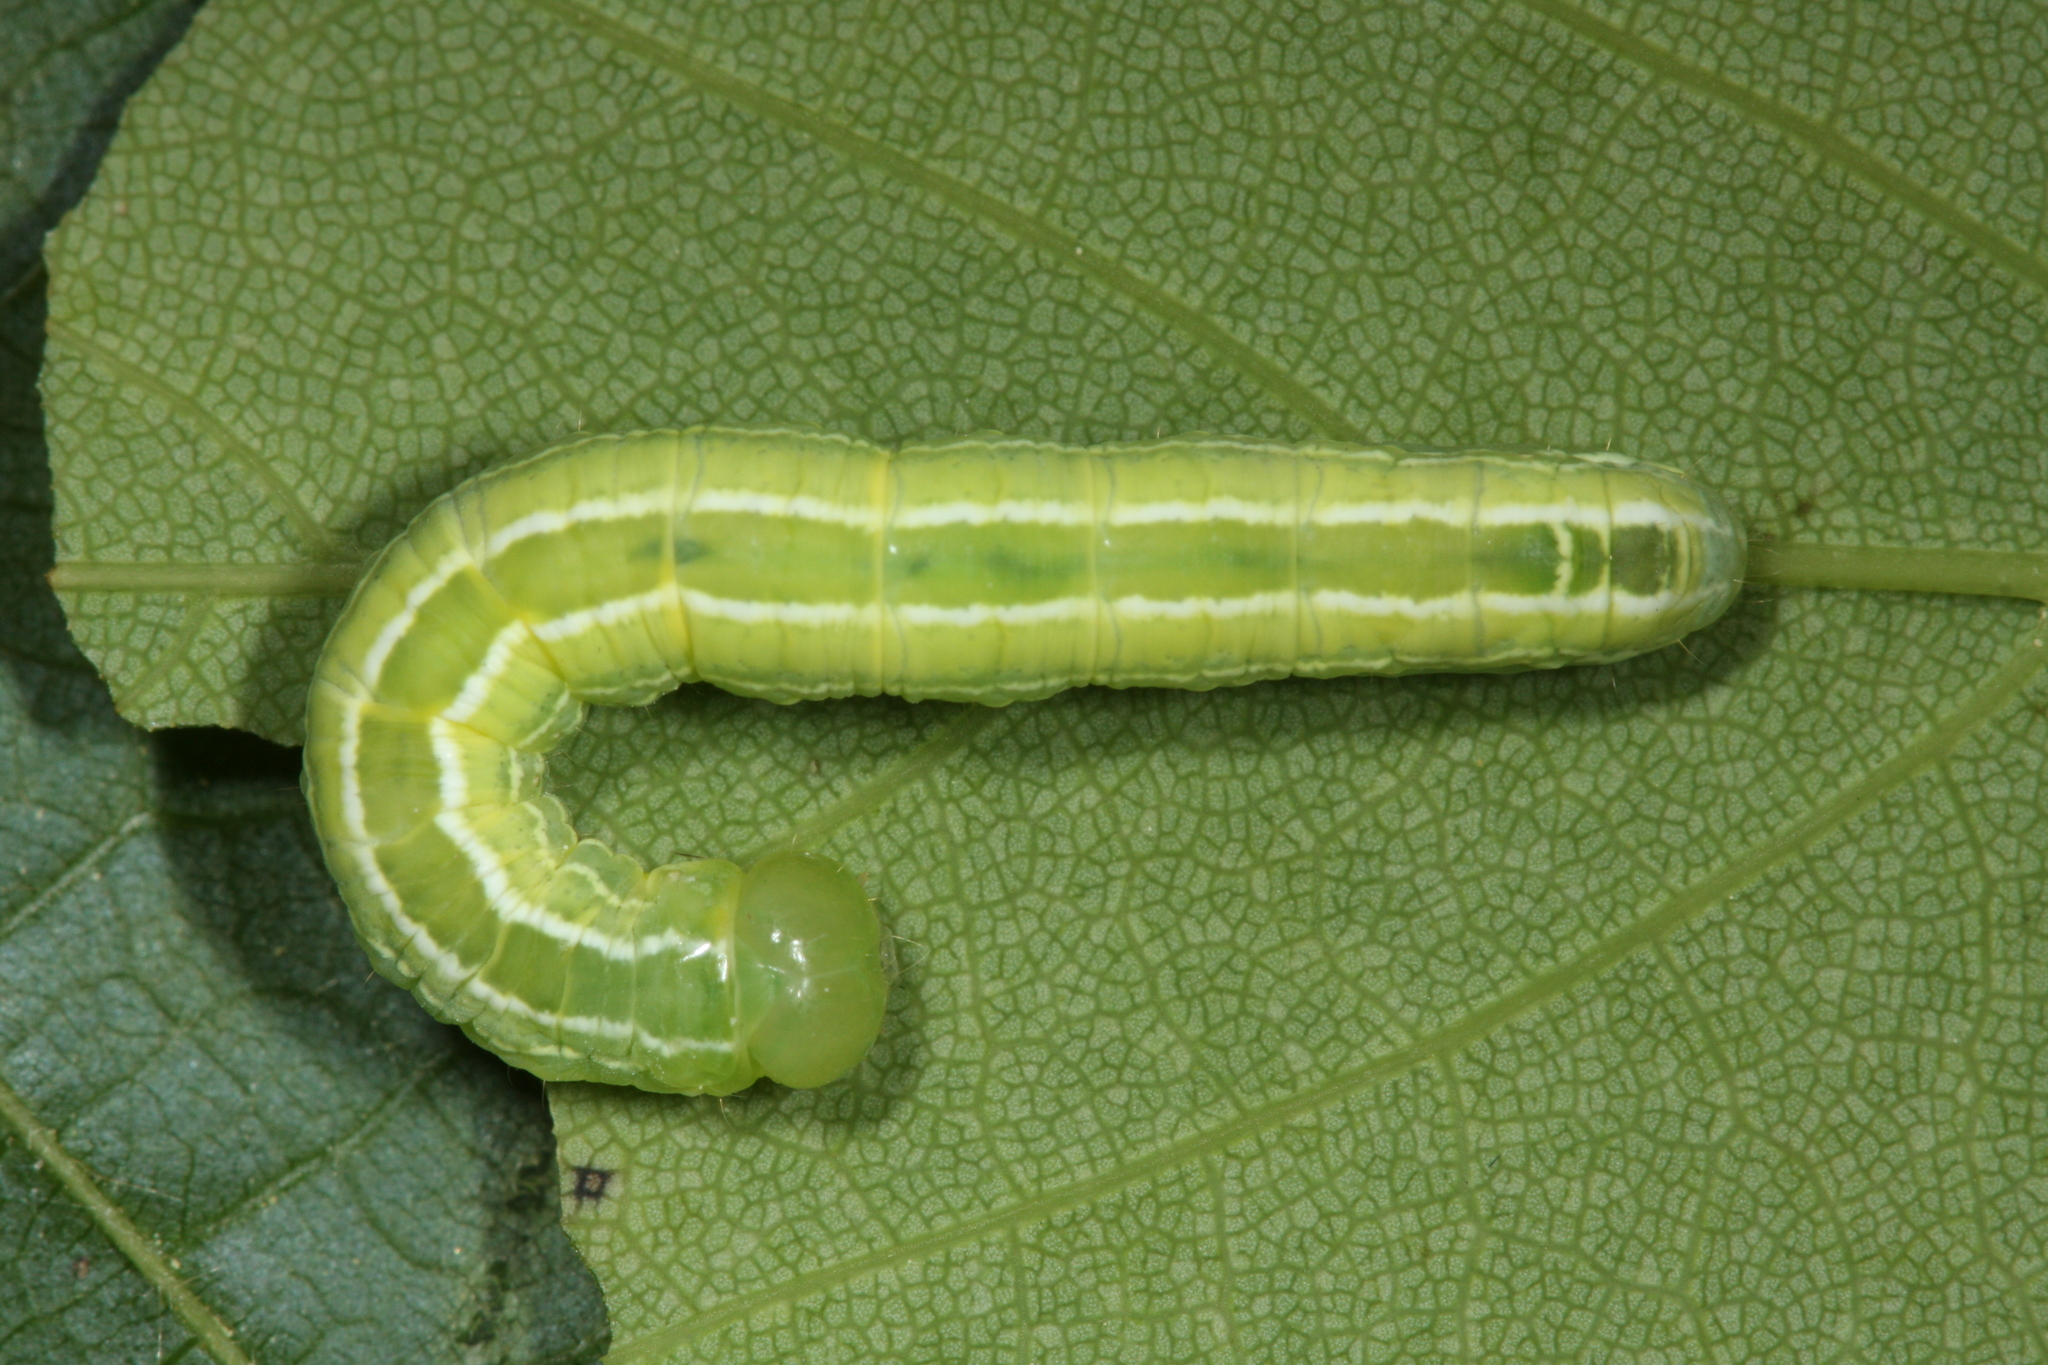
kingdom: Animalia
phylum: Arthropoda
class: Insecta
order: Lepidoptera
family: Notodontidae
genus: Ptilophora
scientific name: Ptilophora plumigera
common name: Plumed prominent
